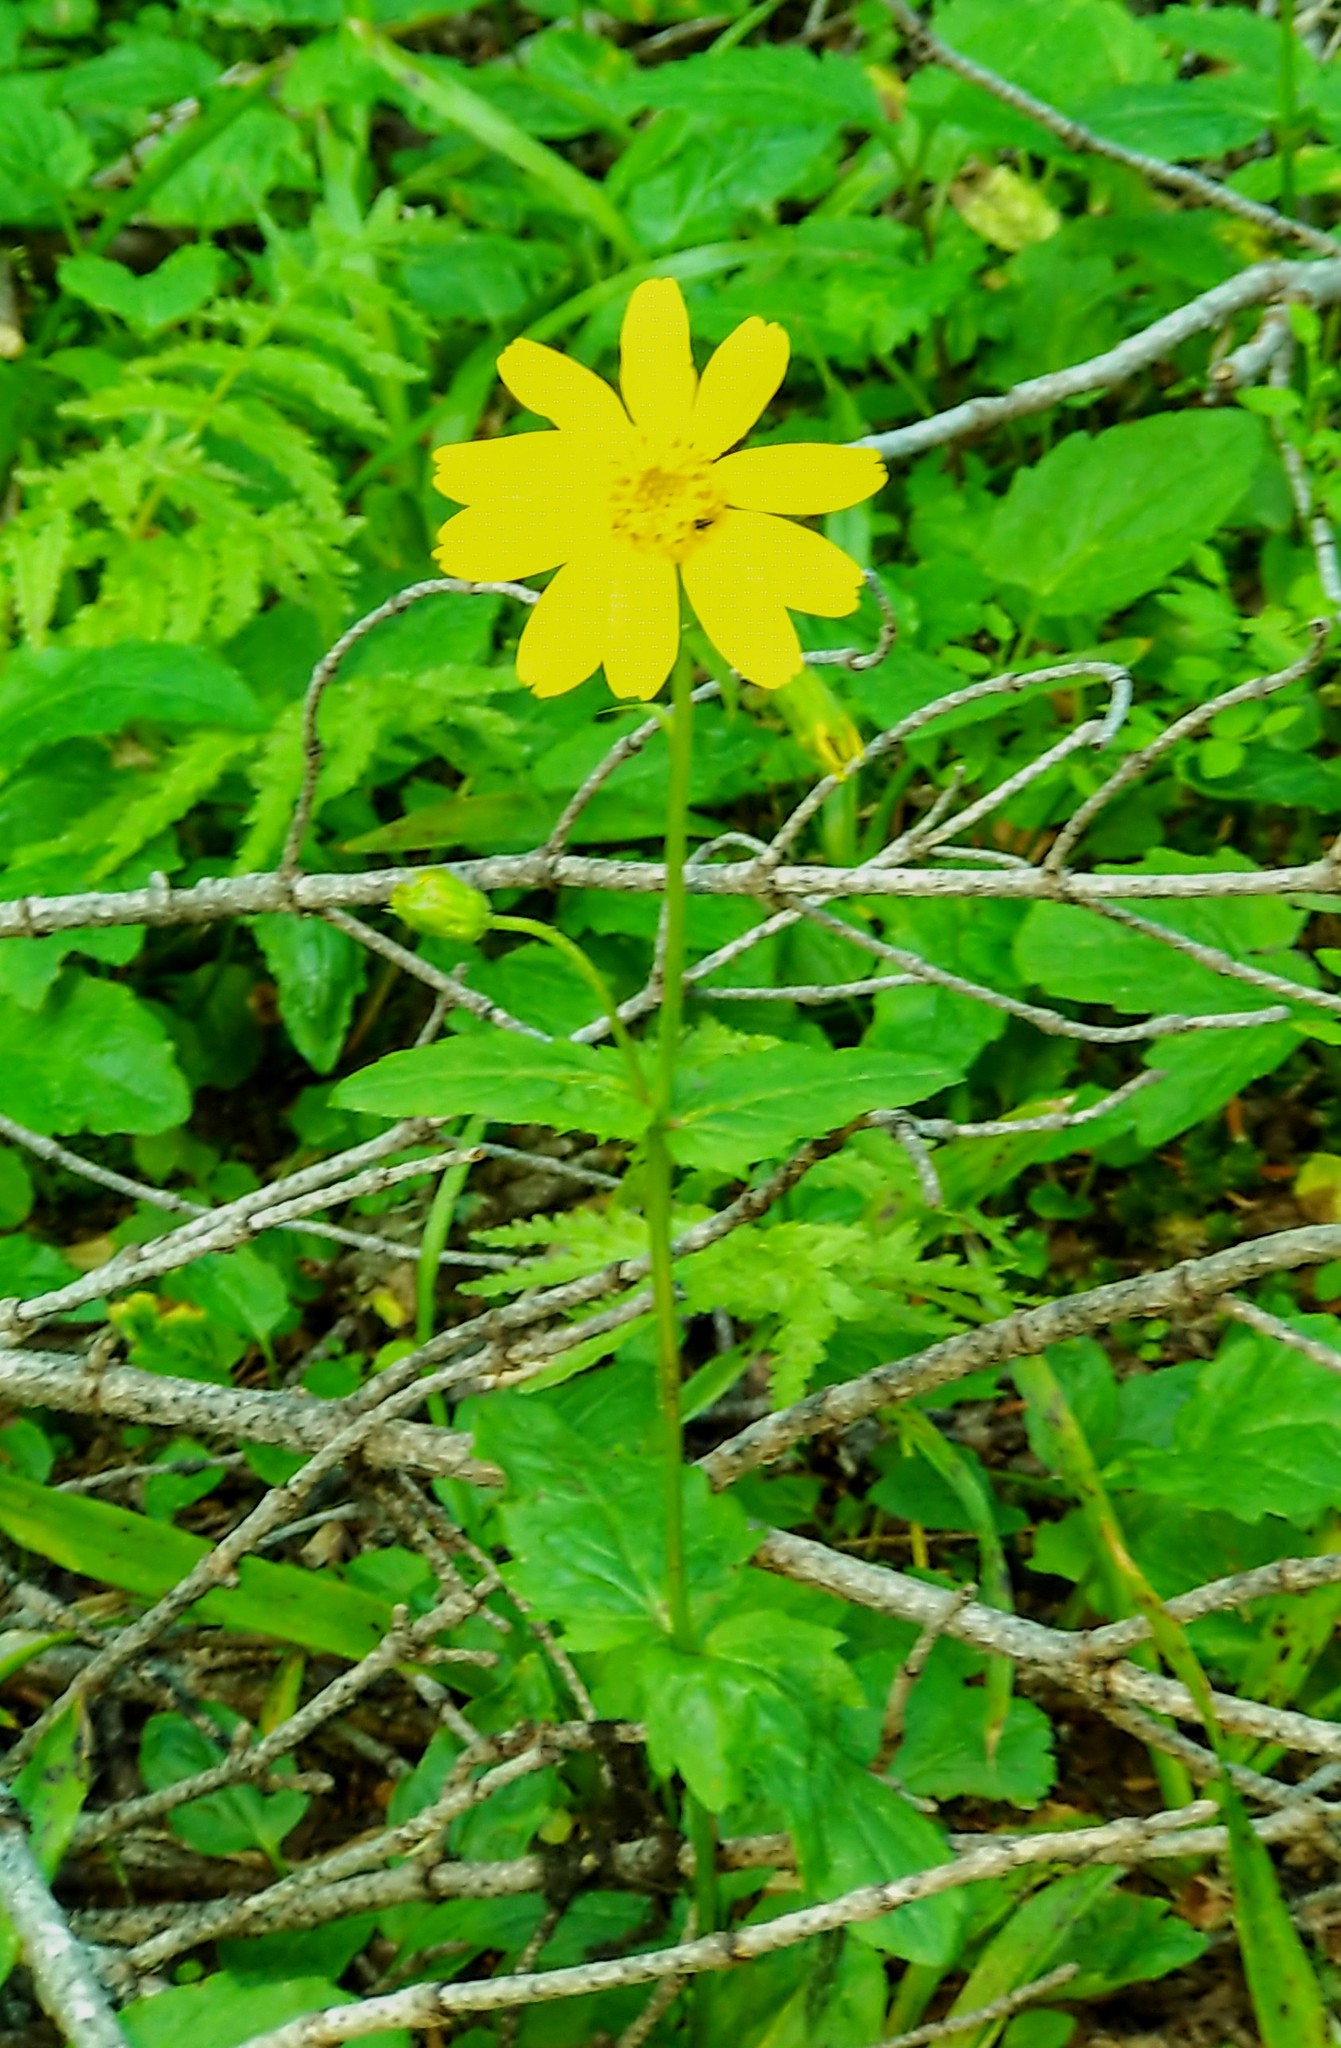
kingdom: Plantae
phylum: Tracheophyta
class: Magnoliopsida
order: Asterales
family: Asteraceae
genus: Arnica
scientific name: Arnica latifolia
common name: Arnica
